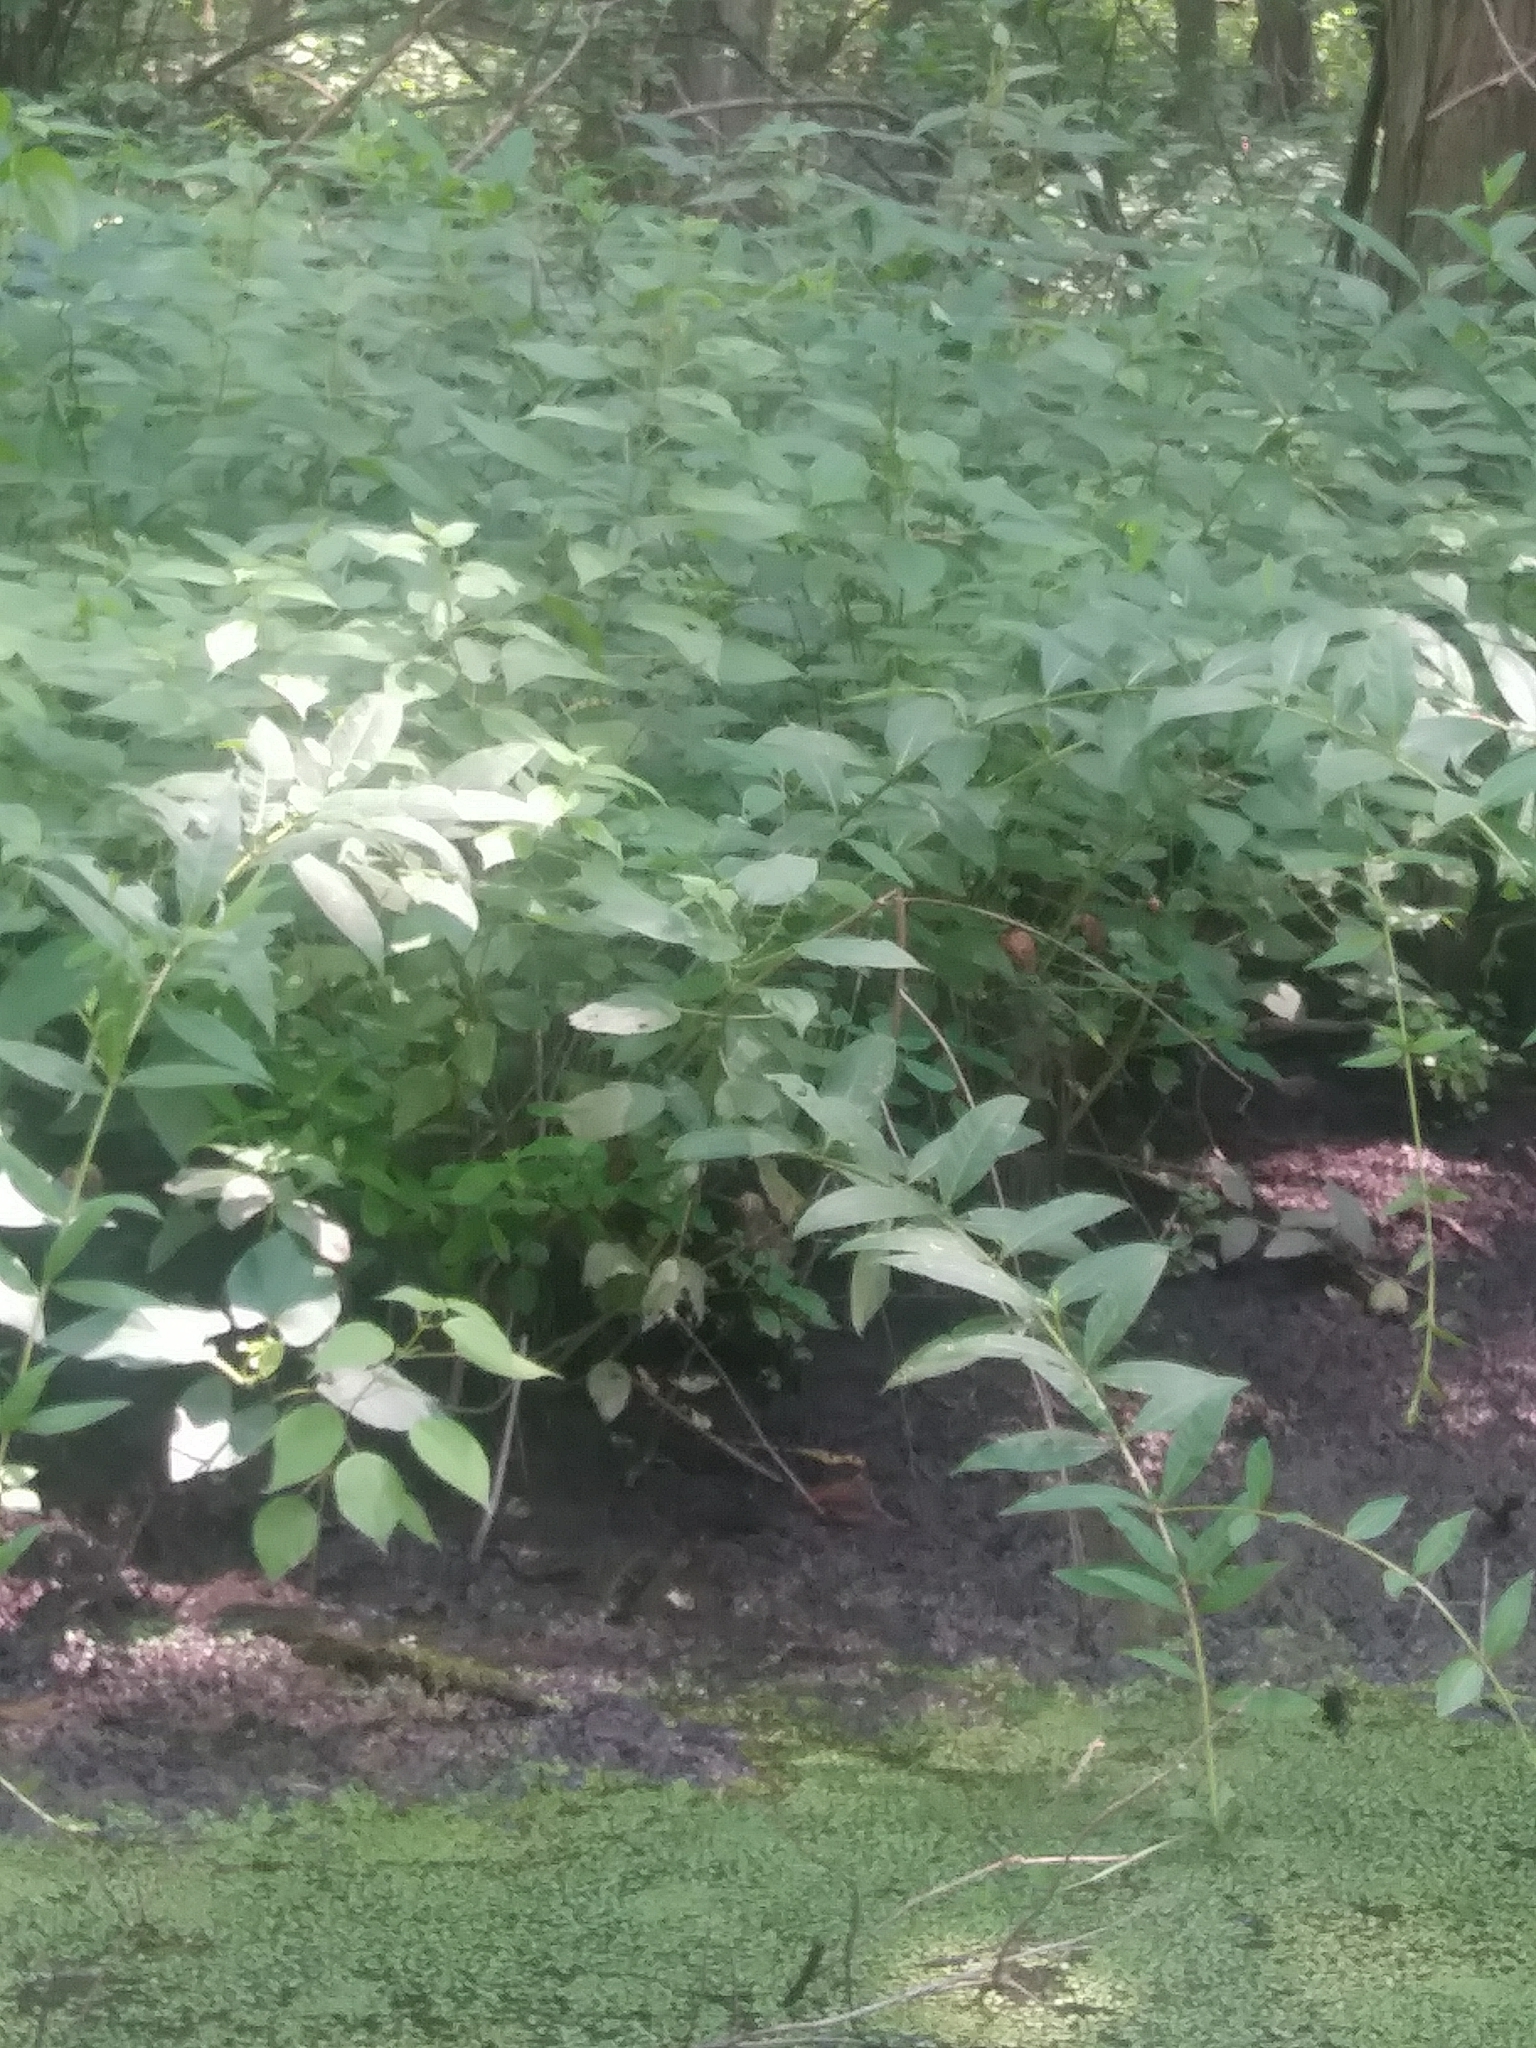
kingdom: Plantae
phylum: Tracheophyta
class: Magnoliopsida
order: Myrtales
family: Lythraceae
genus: Decodon
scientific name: Decodon verticillatus
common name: Hairy swamp loosestrife
